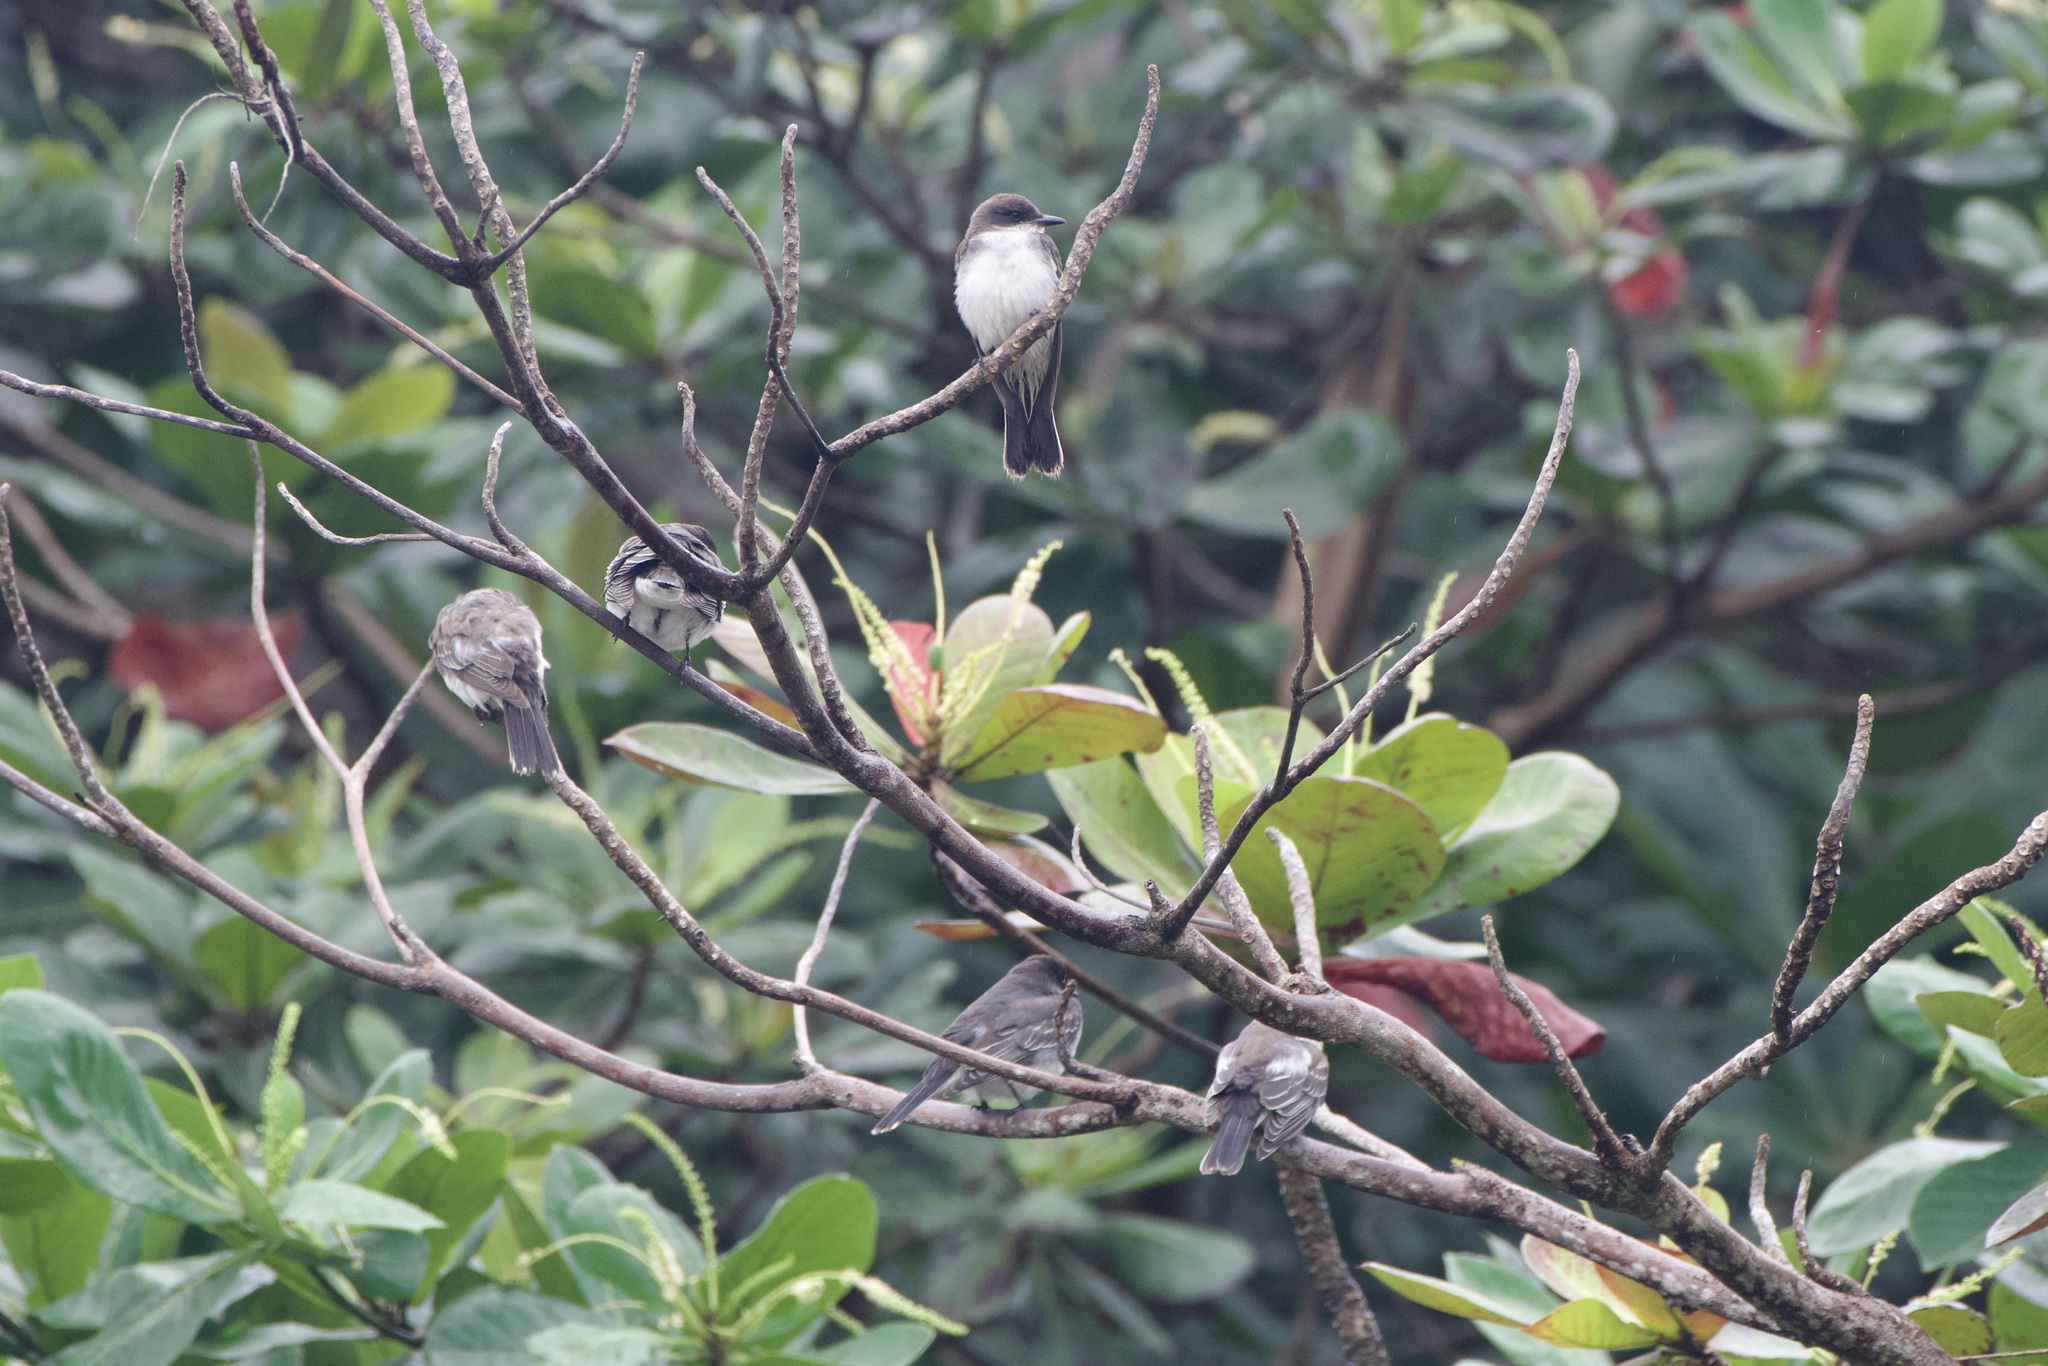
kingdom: Animalia
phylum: Chordata
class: Aves
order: Passeriformes
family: Tyrannidae
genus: Tyrannus
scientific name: Tyrannus tyrannus
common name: Eastern kingbird
